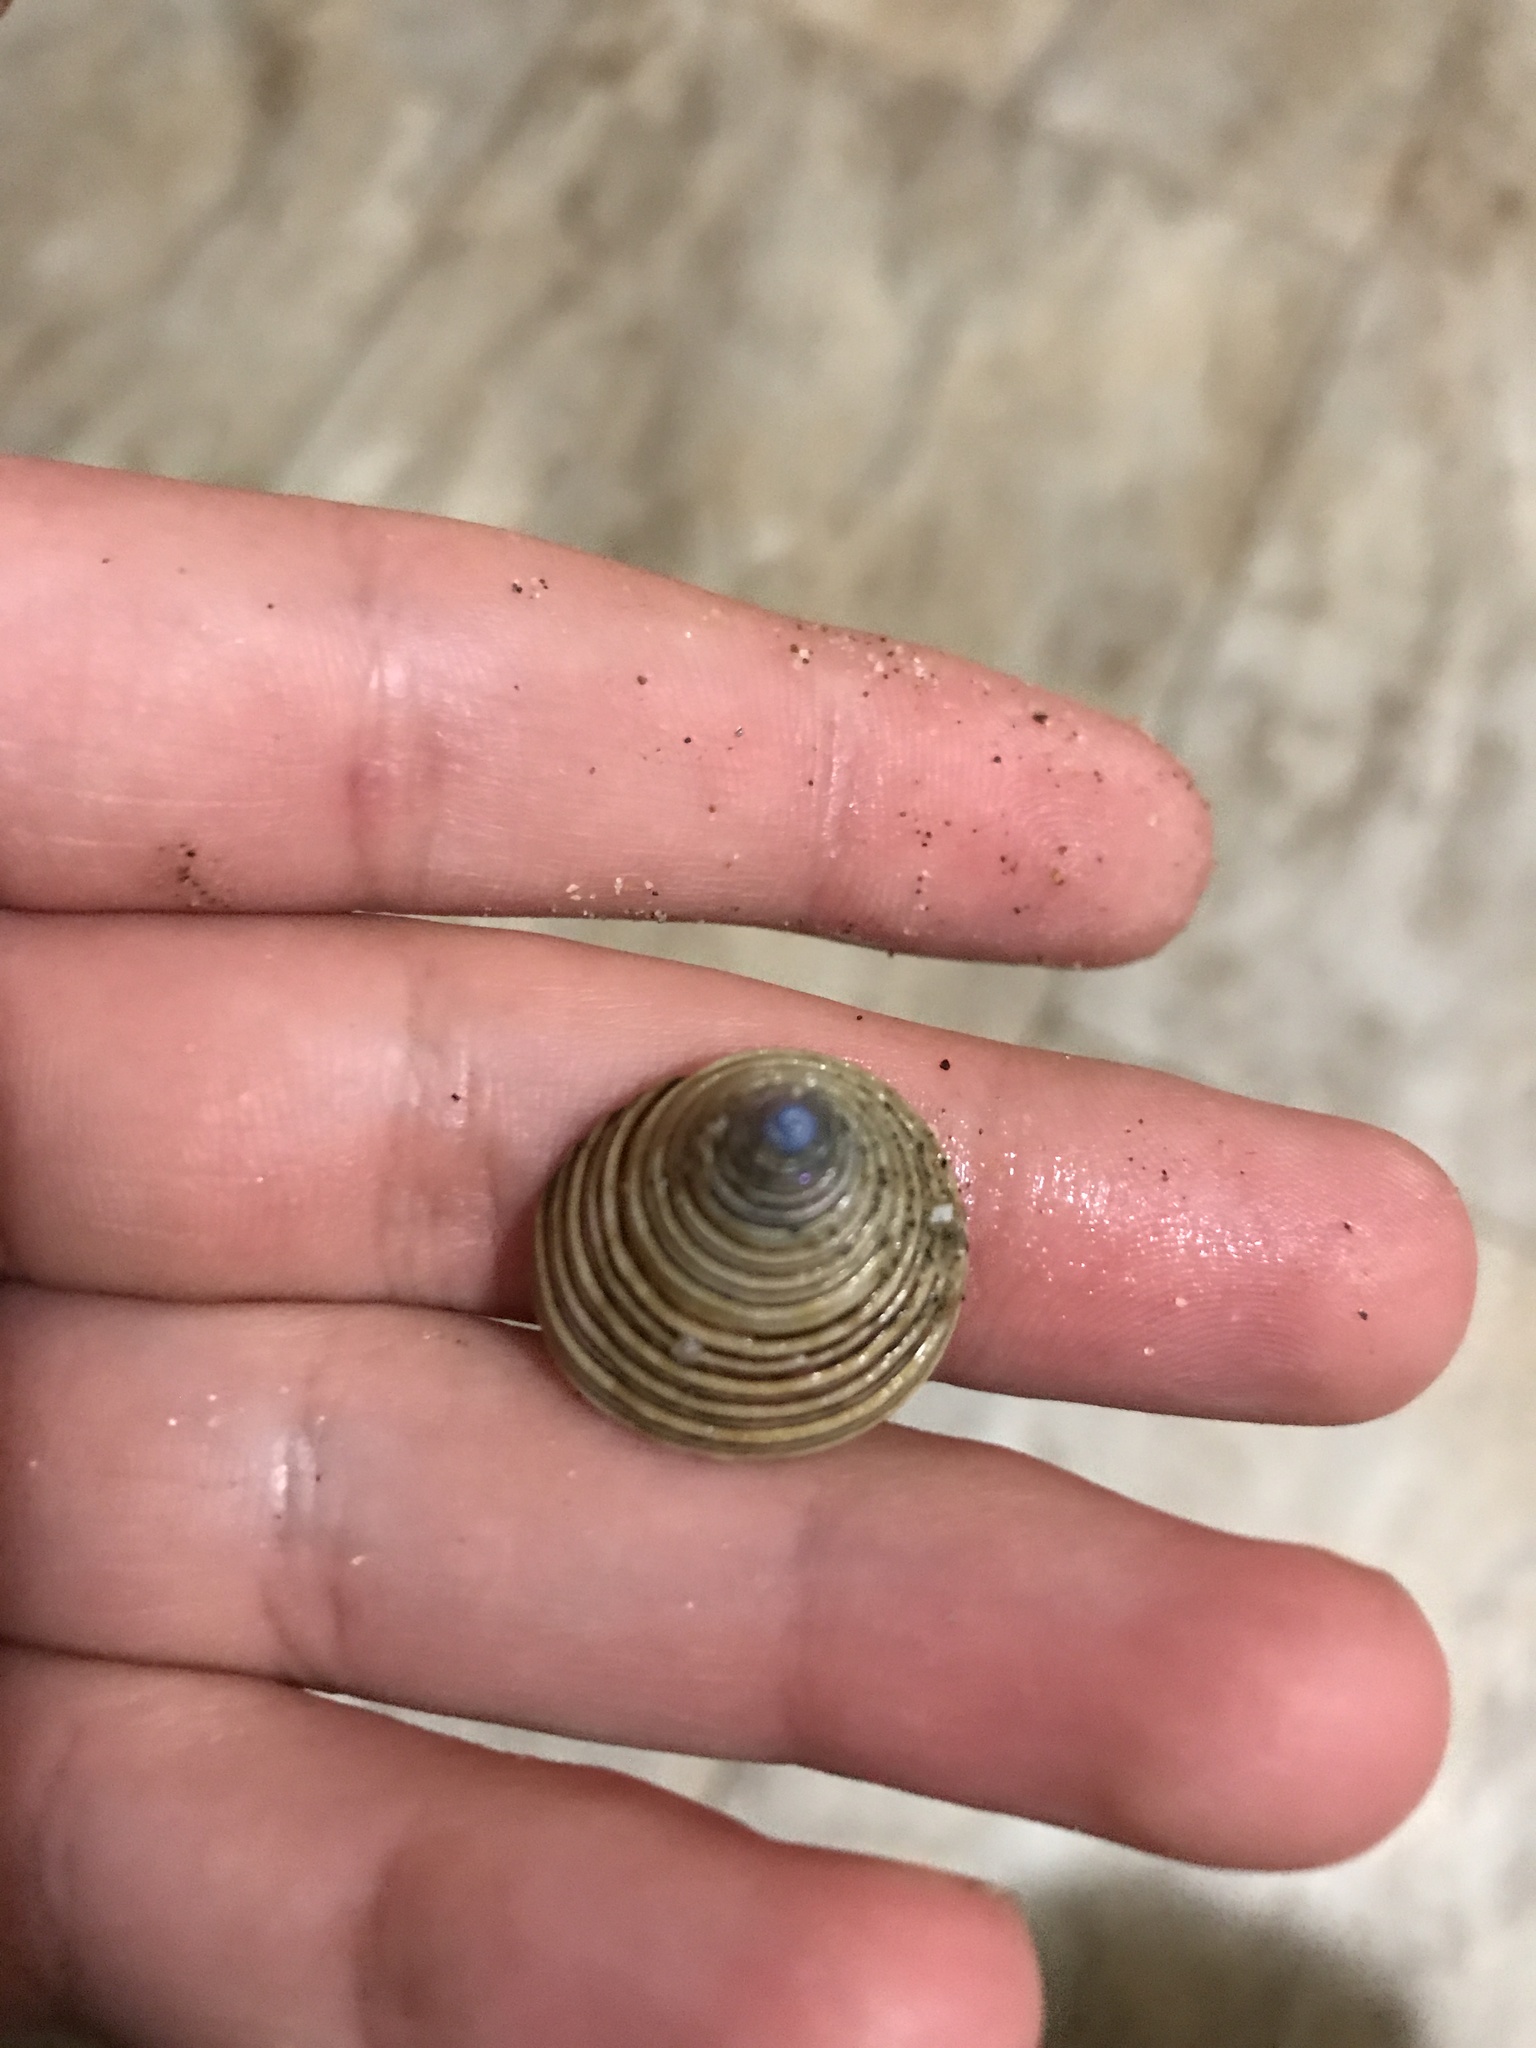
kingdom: Animalia
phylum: Mollusca
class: Gastropoda
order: Trochida
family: Calliostomatidae
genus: Calliostoma
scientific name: Calliostoma canaliculatum
